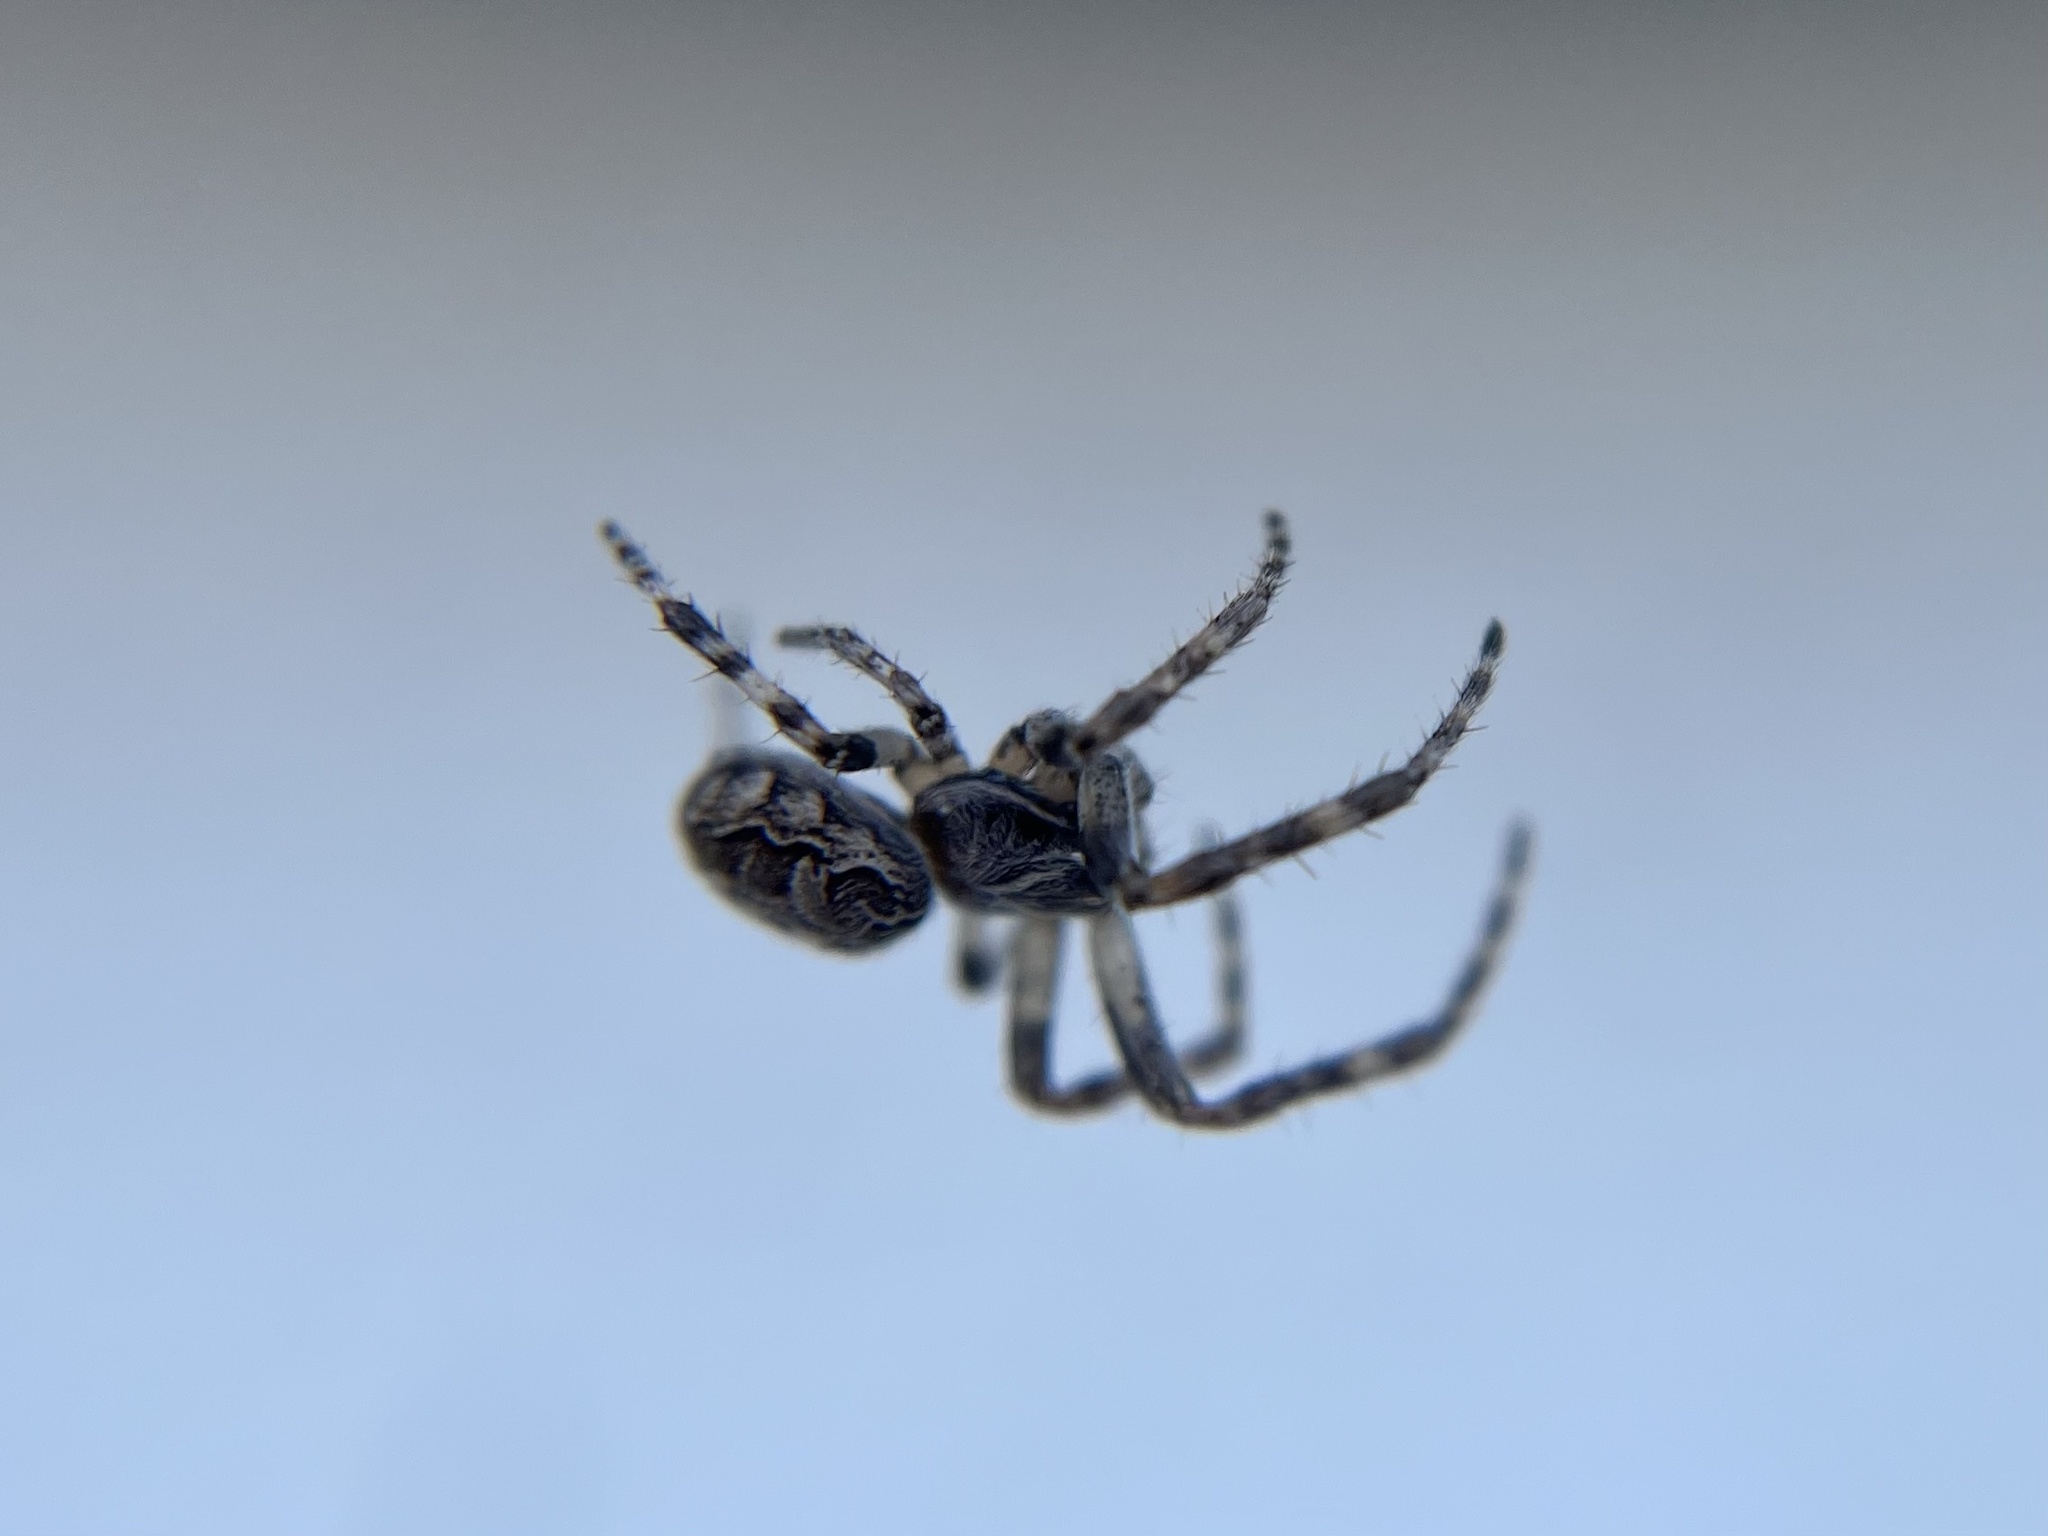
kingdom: Animalia
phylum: Arthropoda
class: Arachnida
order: Araneae
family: Araneidae
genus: Larinioides
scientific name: Larinioides sclopetarius
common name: Bridge orbweaver
